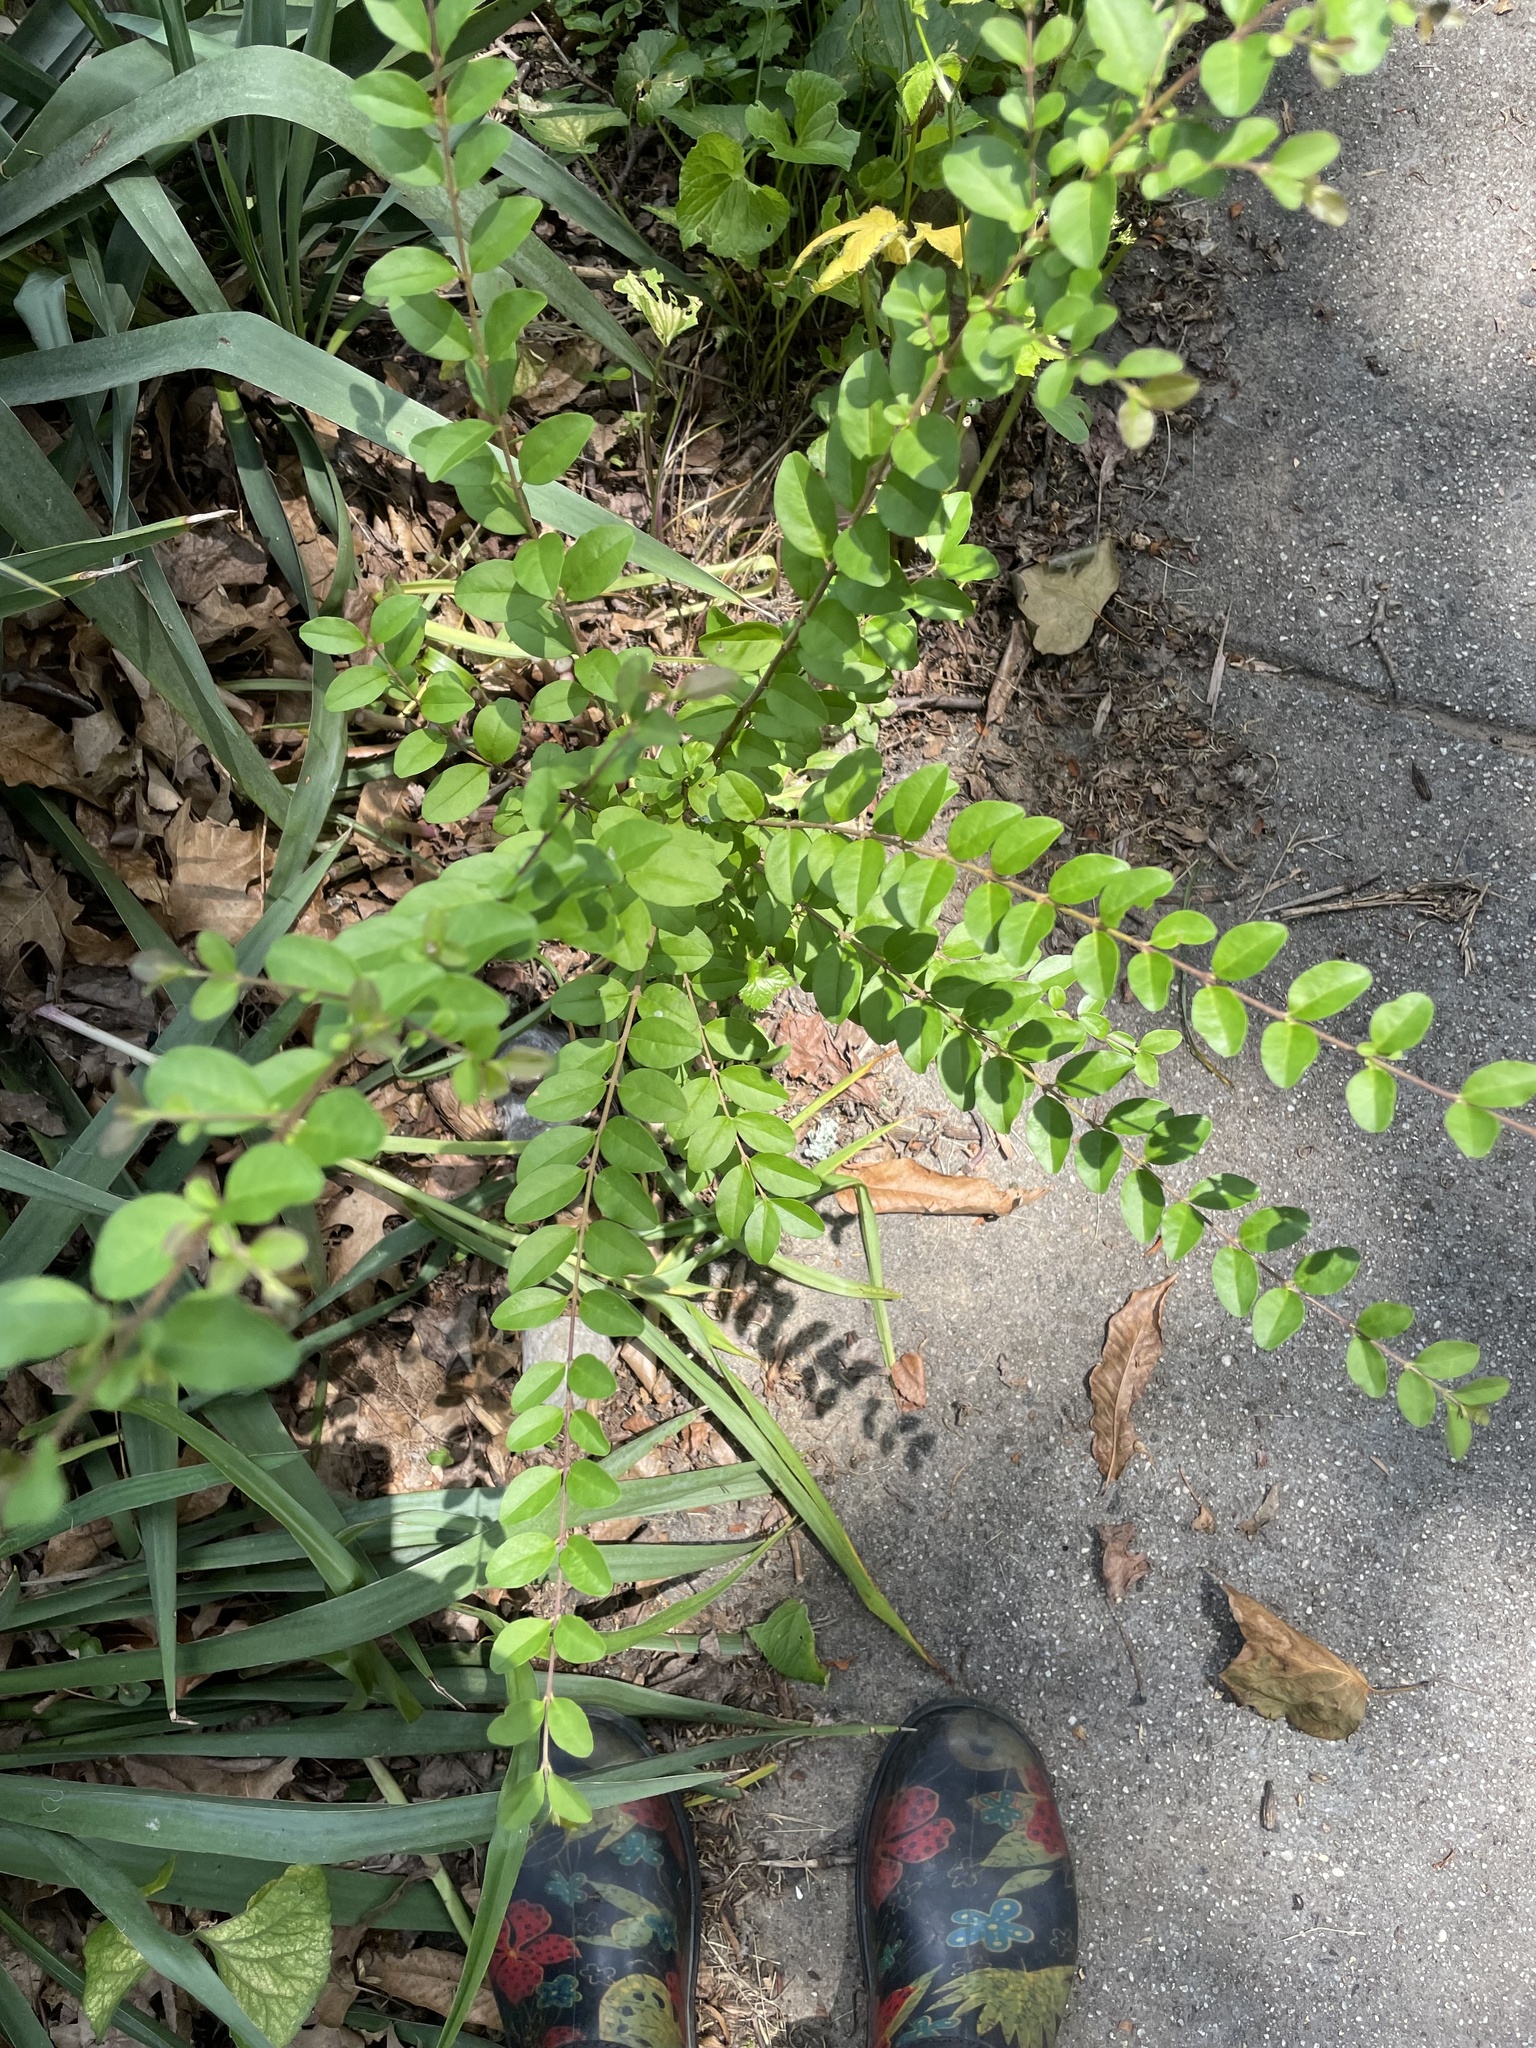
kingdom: Plantae
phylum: Tracheophyta
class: Magnoliopsida
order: Lamiales
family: Oleaceae
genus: Ligustrum
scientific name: Ligustrum sinense
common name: Chinese privet
